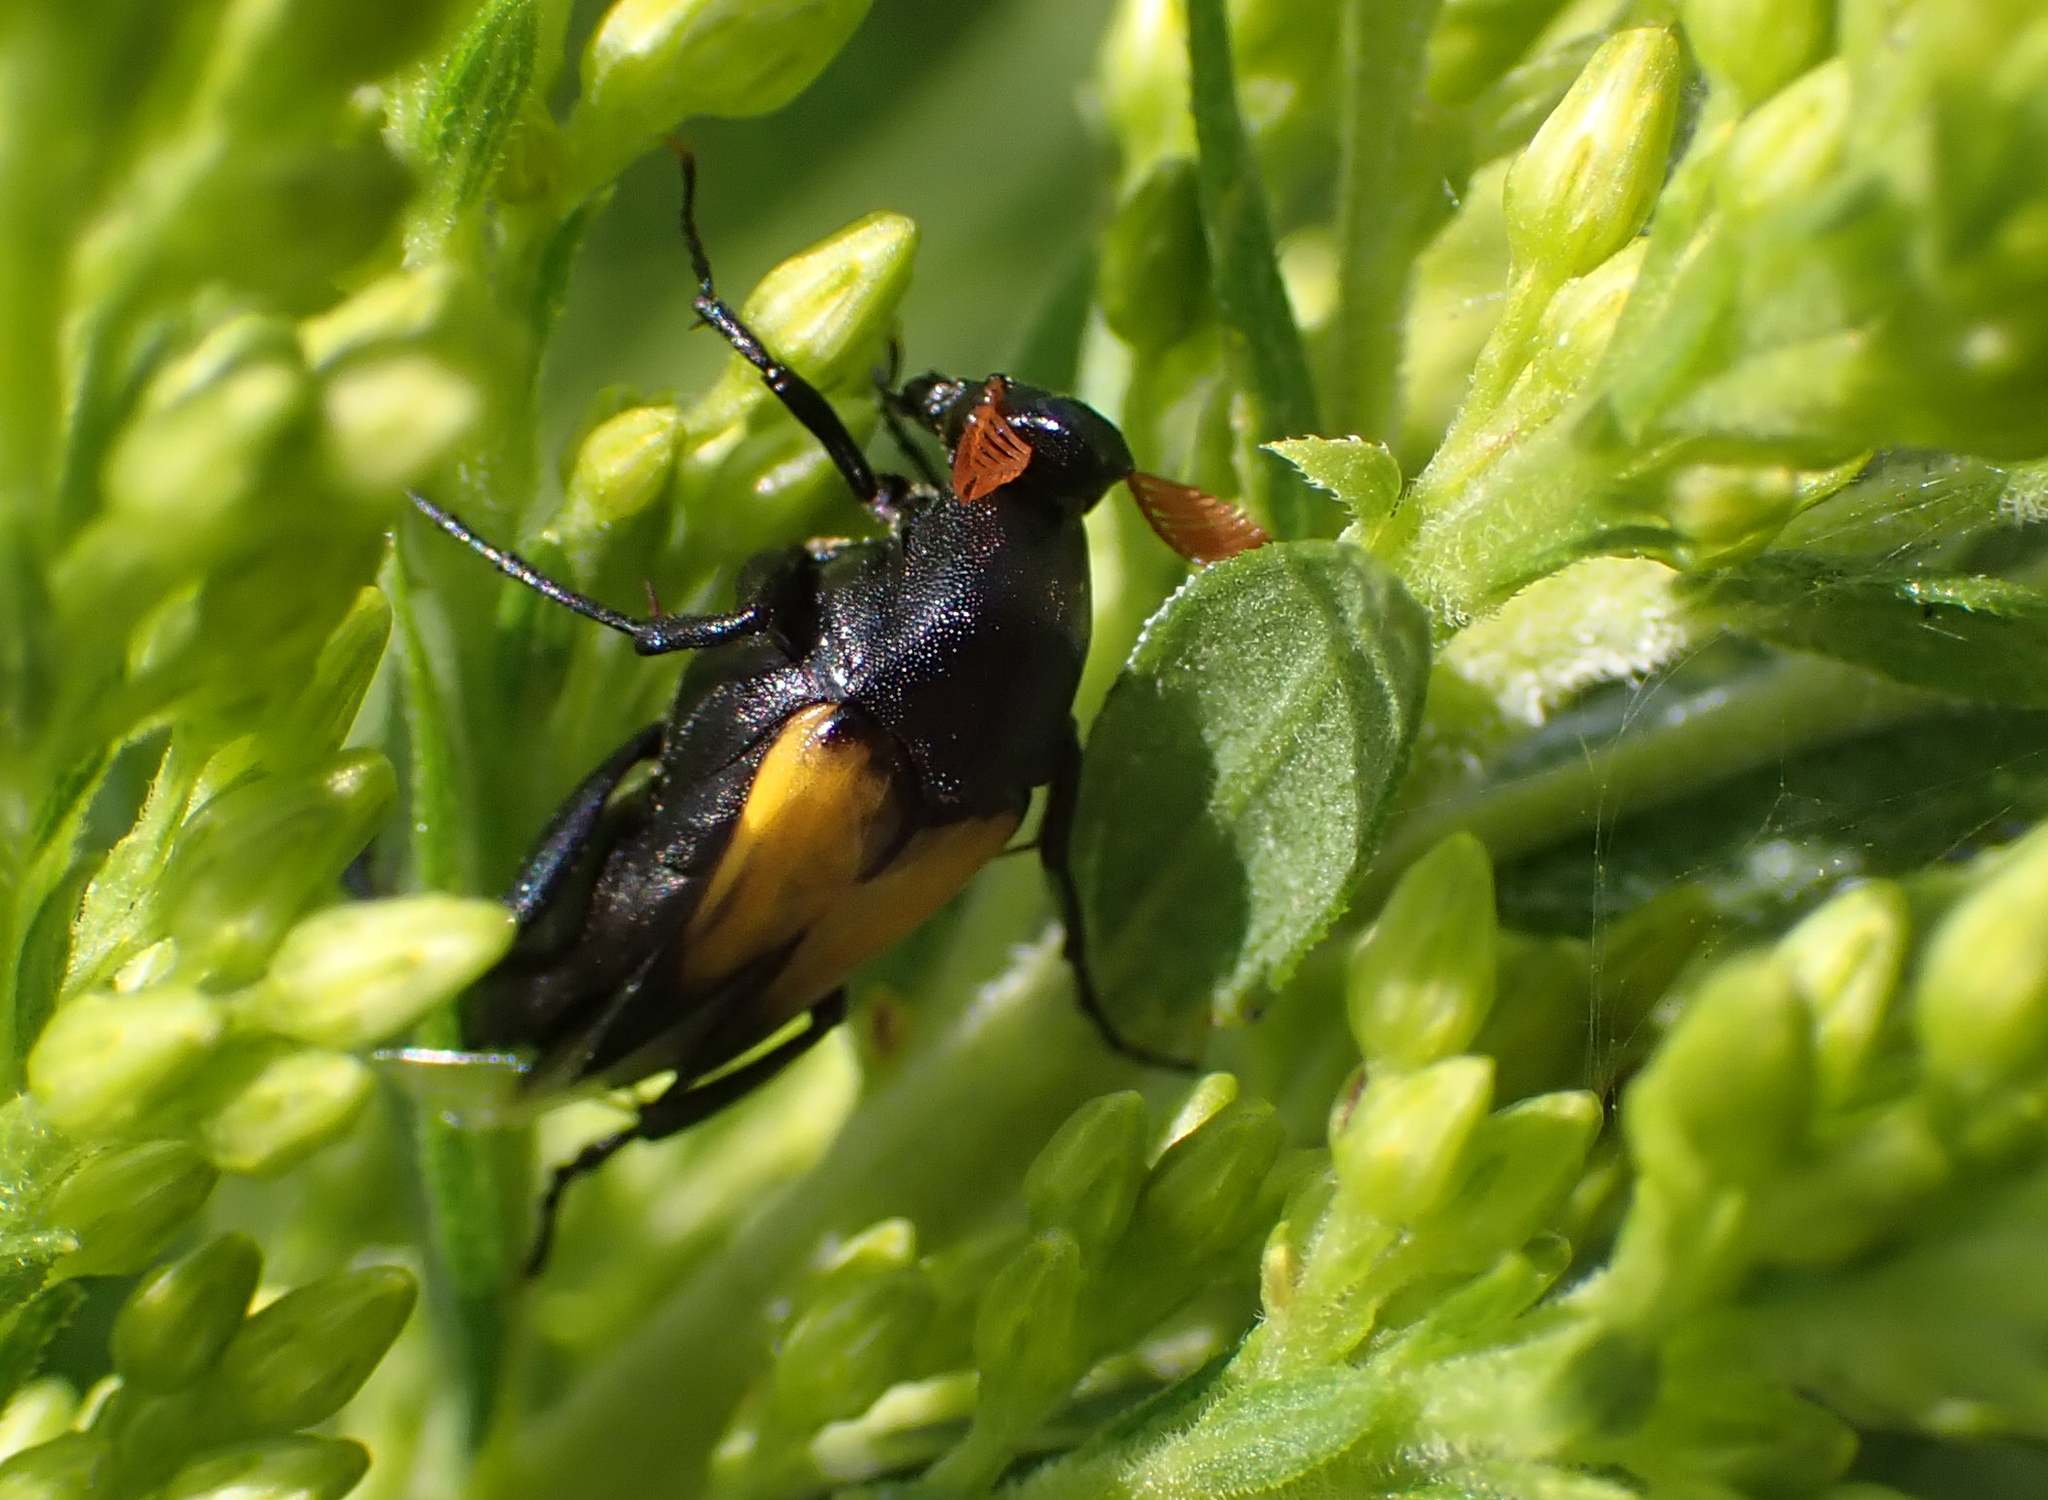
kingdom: Animalia
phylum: Arthropoda
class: Insecta
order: Coleoptera
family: Ripiphoridae
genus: Macrosiagon
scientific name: Macrosiagon dimidiata
